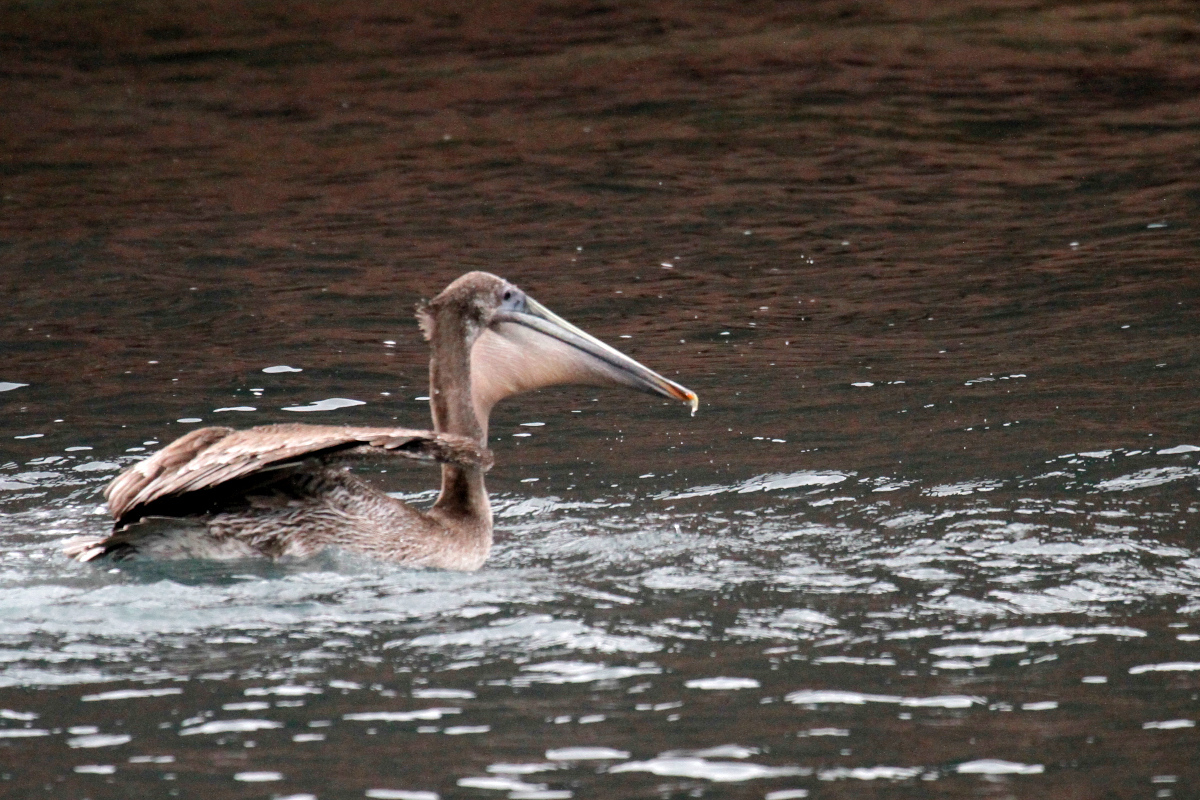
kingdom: Animalia
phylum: Chordata
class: Aves
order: Pelecaniformes
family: Pelecanidae
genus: Pelecanus
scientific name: Pelecanus occidentalis
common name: Brown pelican
